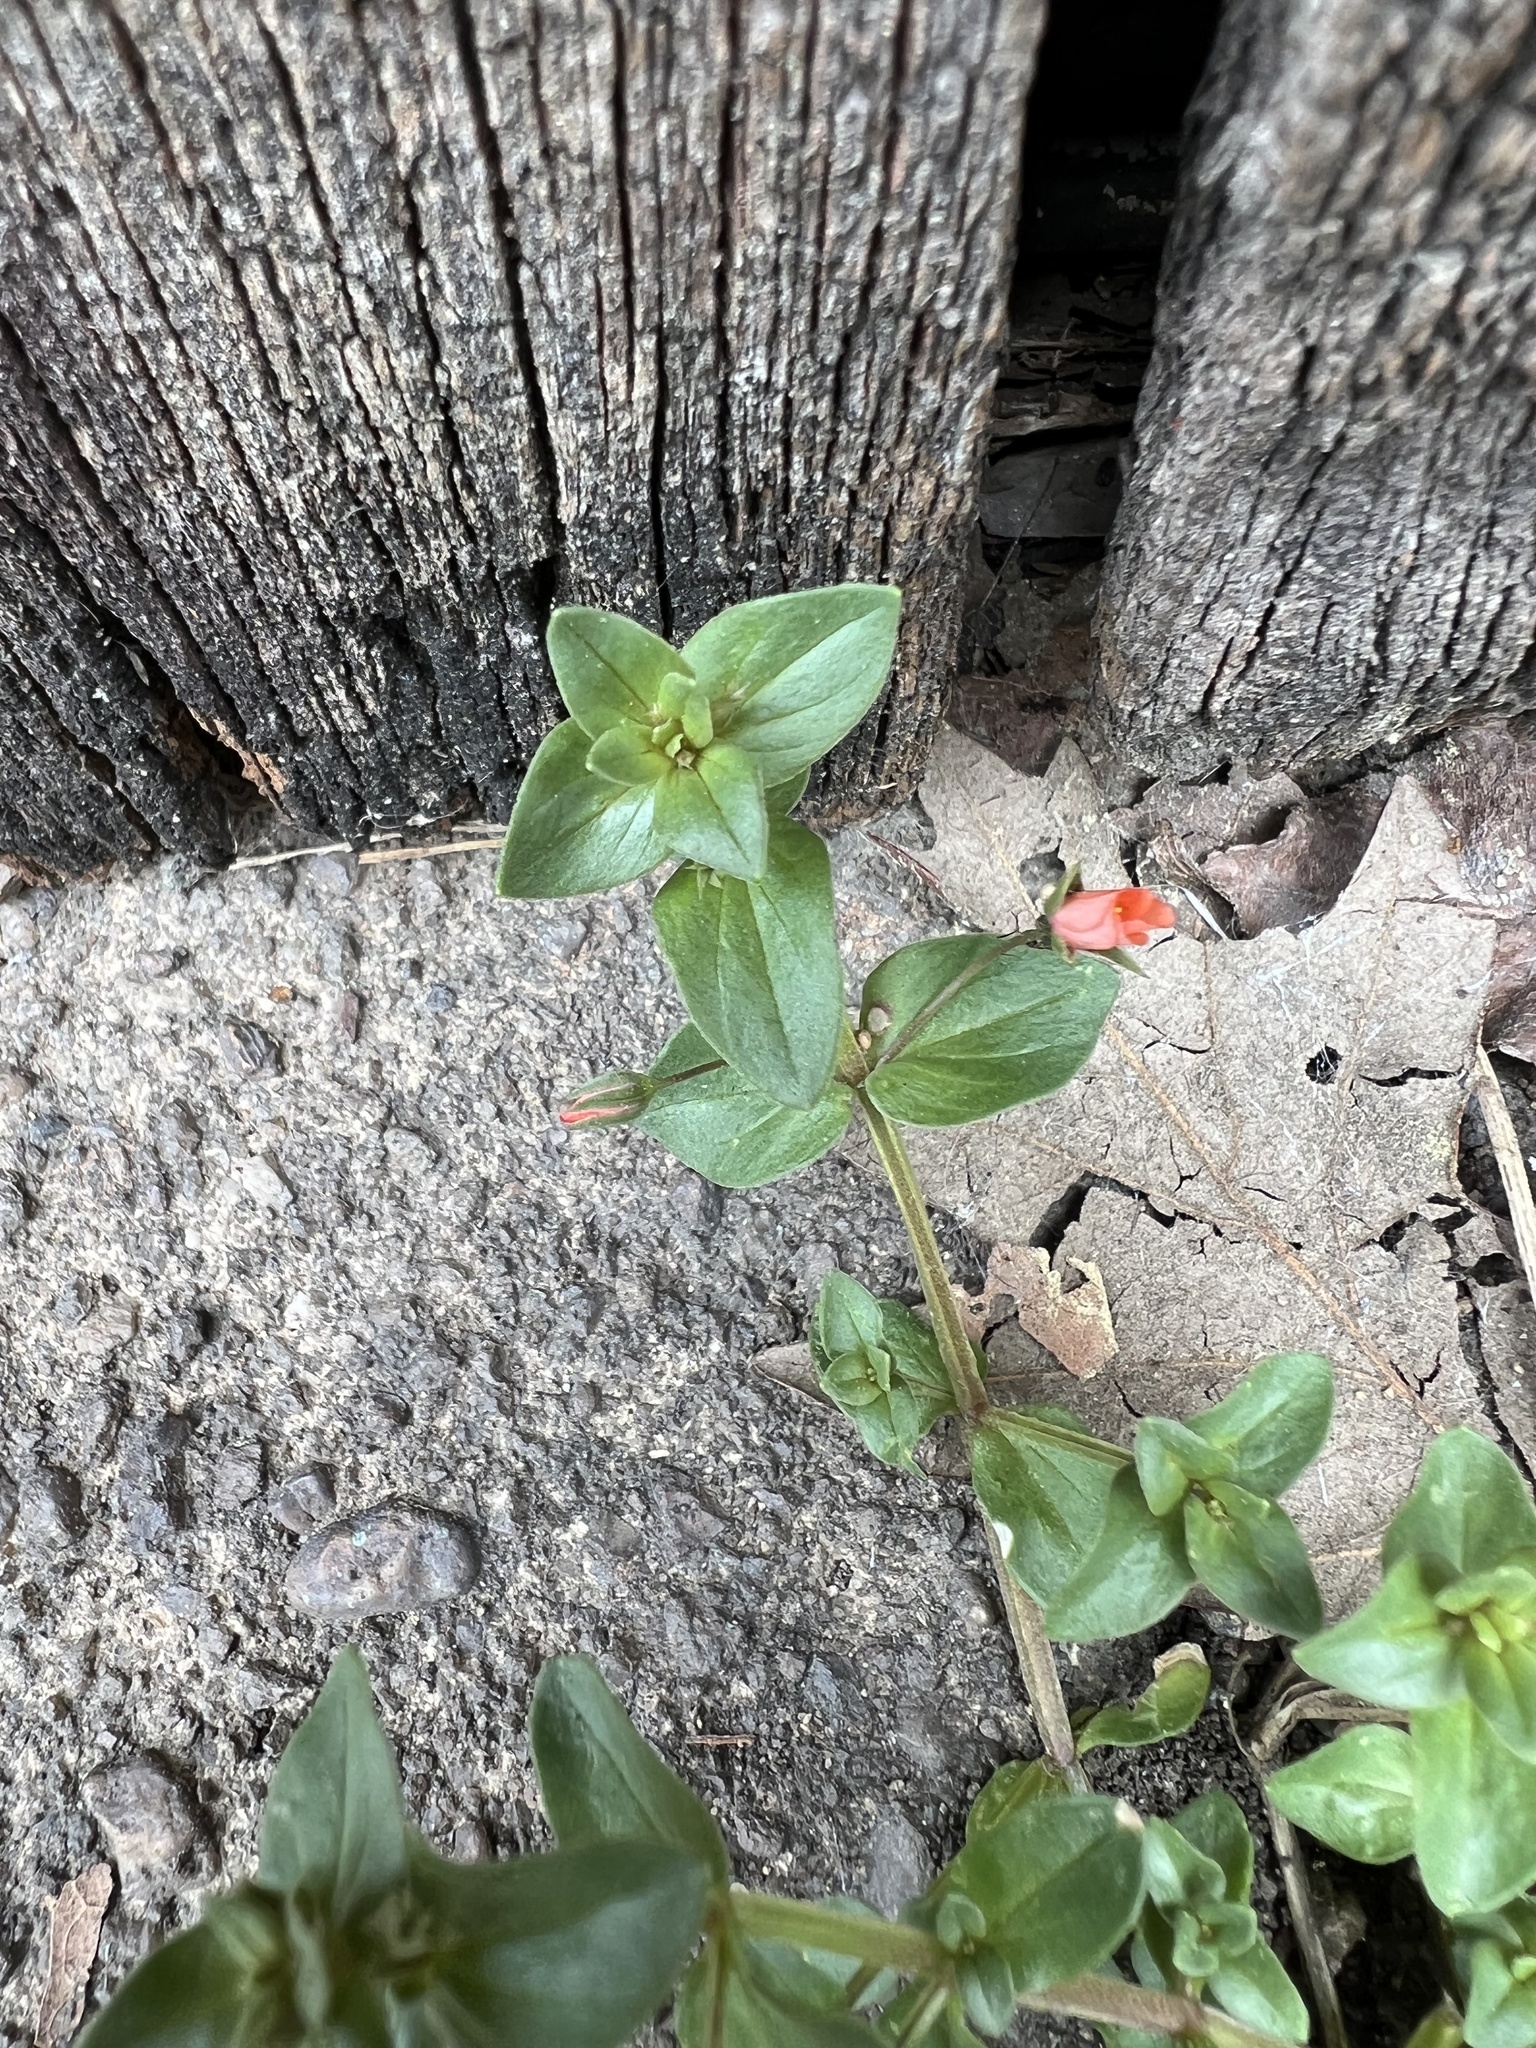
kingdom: Plantae
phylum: Tracheophyta
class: Magnoliopsida
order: Ericales
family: Primulaceae
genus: Lysimachia
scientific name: Lysimachia arvensis
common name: Scarlet pimpernel
